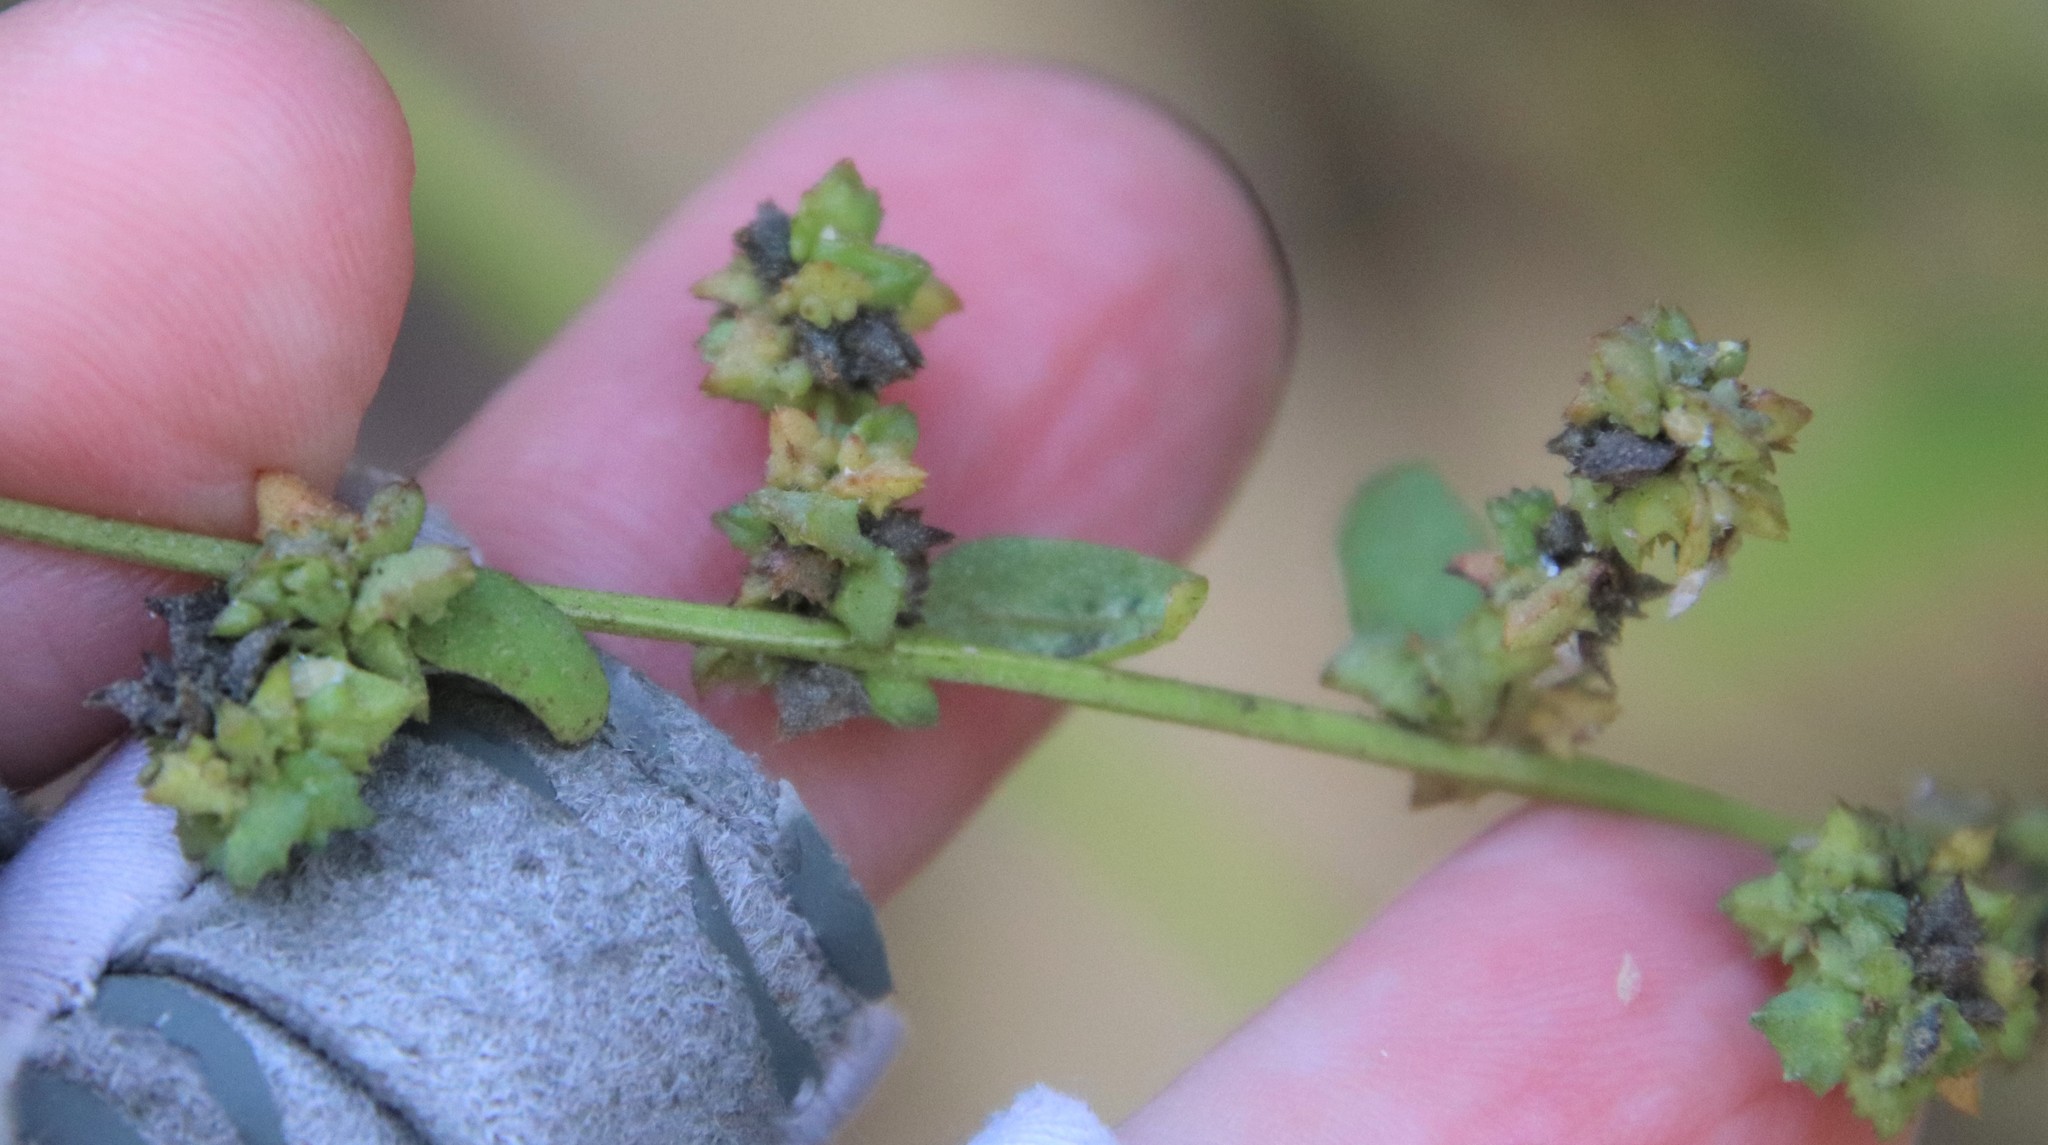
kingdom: Plantae
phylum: Tracheophyta
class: Magnoliopsida
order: Caryophyllales
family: Amaranthaceae
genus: Atriplex
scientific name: Atriplex prostrata
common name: Spear-leaved orache
